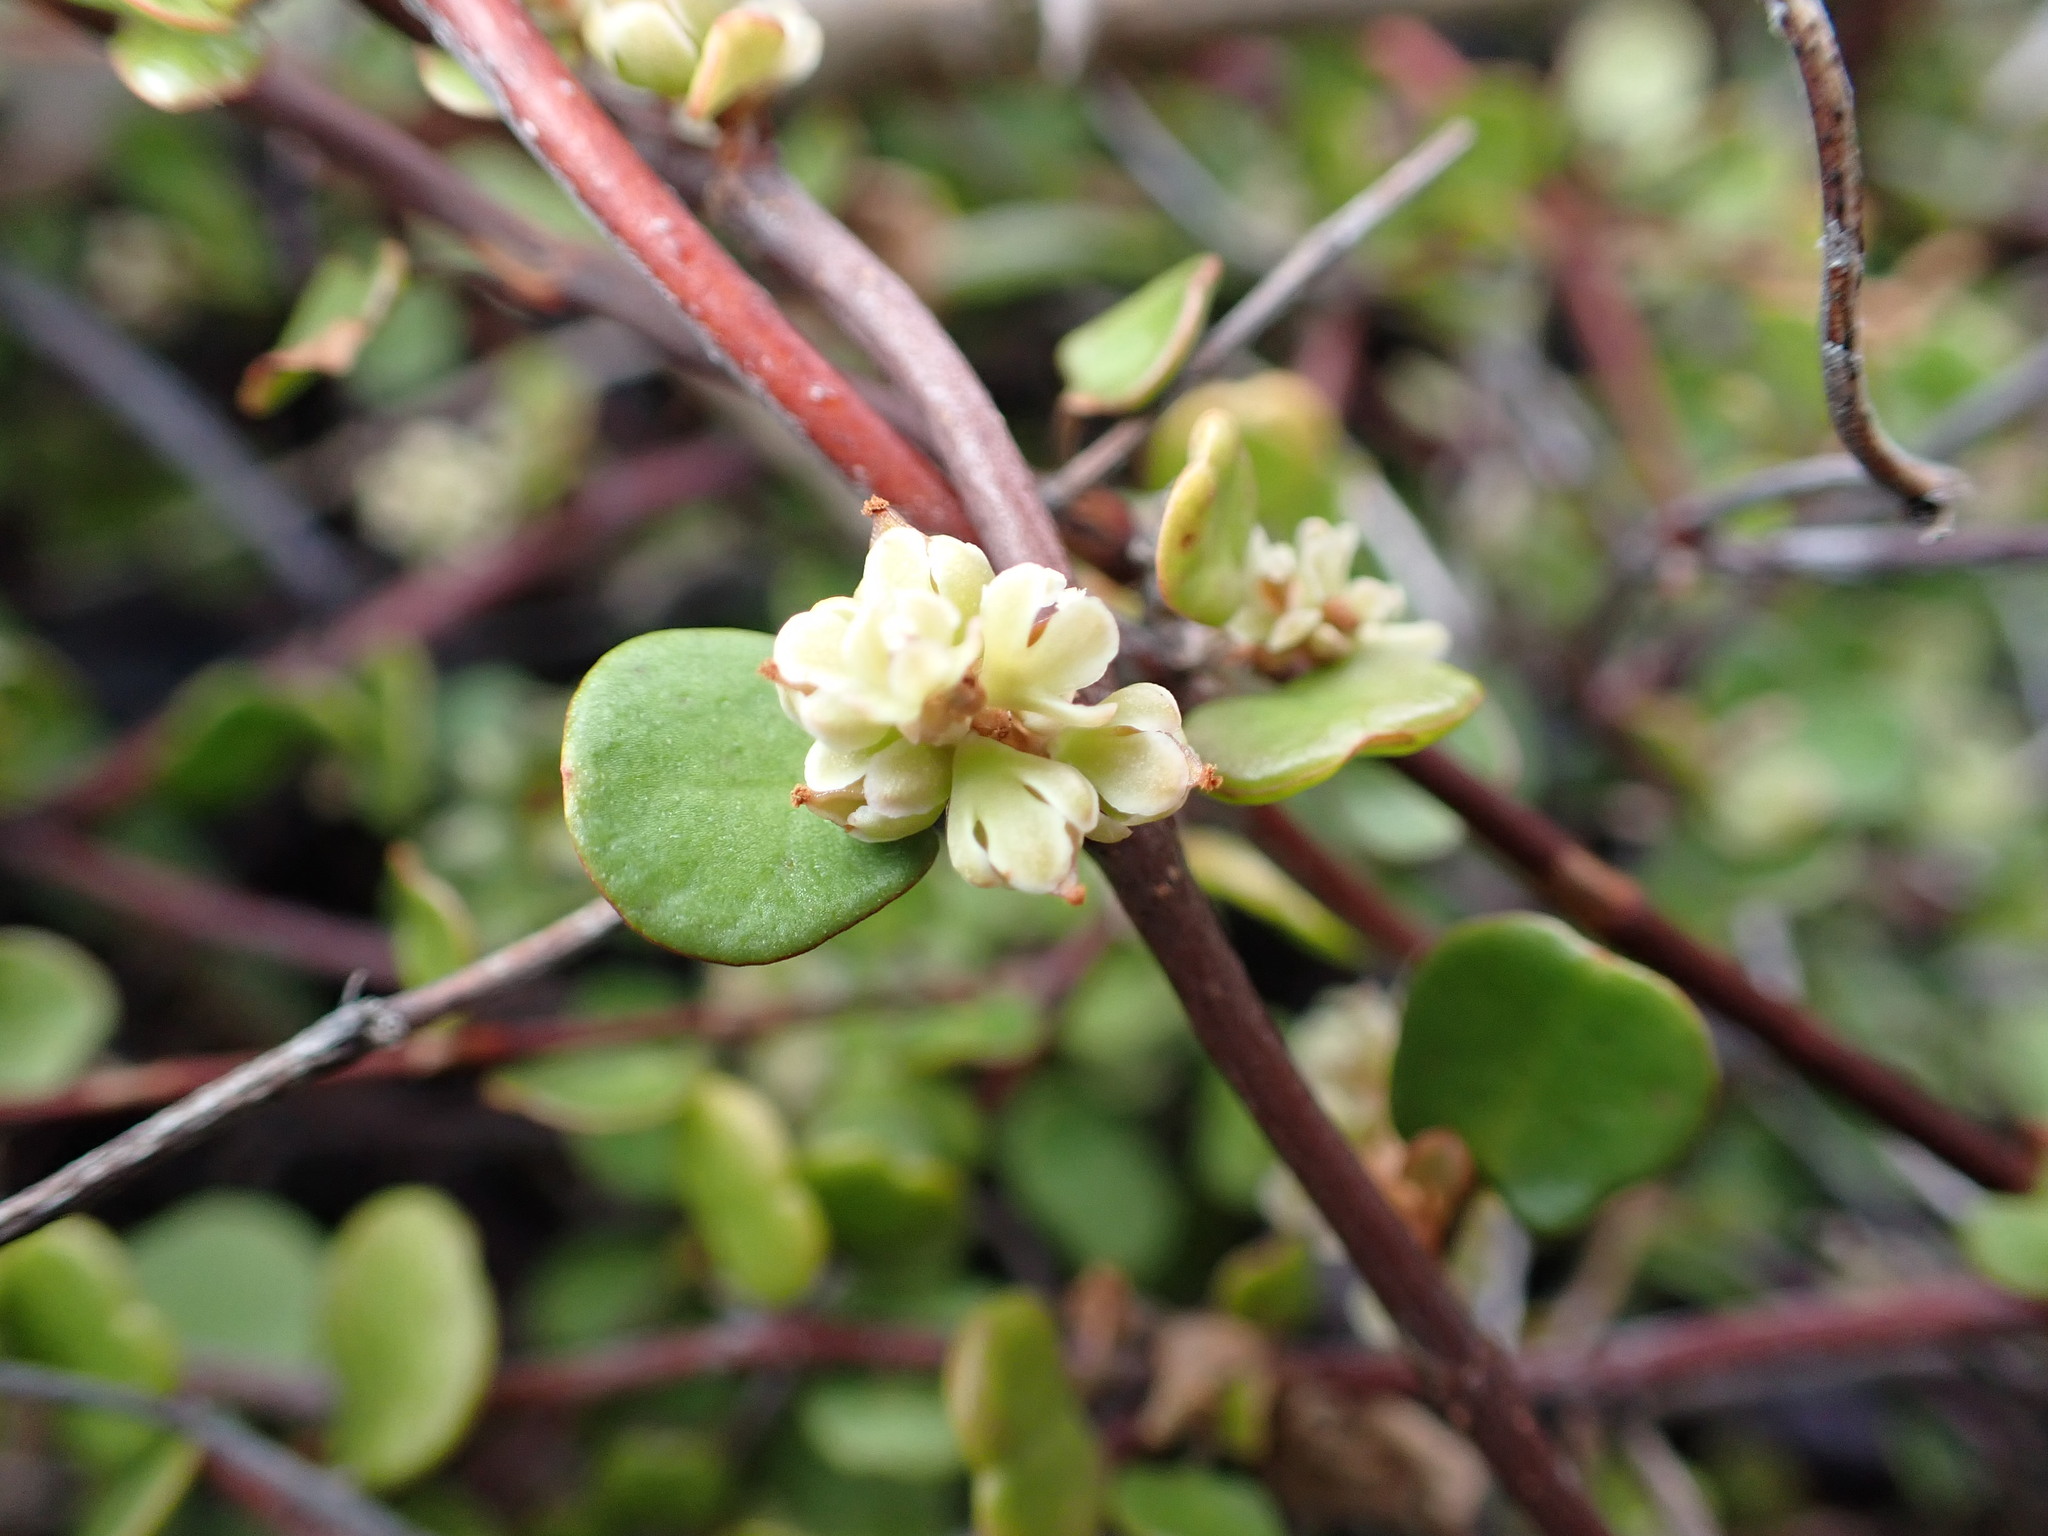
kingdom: Plantae
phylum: Tracheophyta
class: Magnoliopsida
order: Caryophyllales
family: Polygonaceae
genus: Muehlenbeckia
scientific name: Muehlenbeckia complexa
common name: Wireplant
